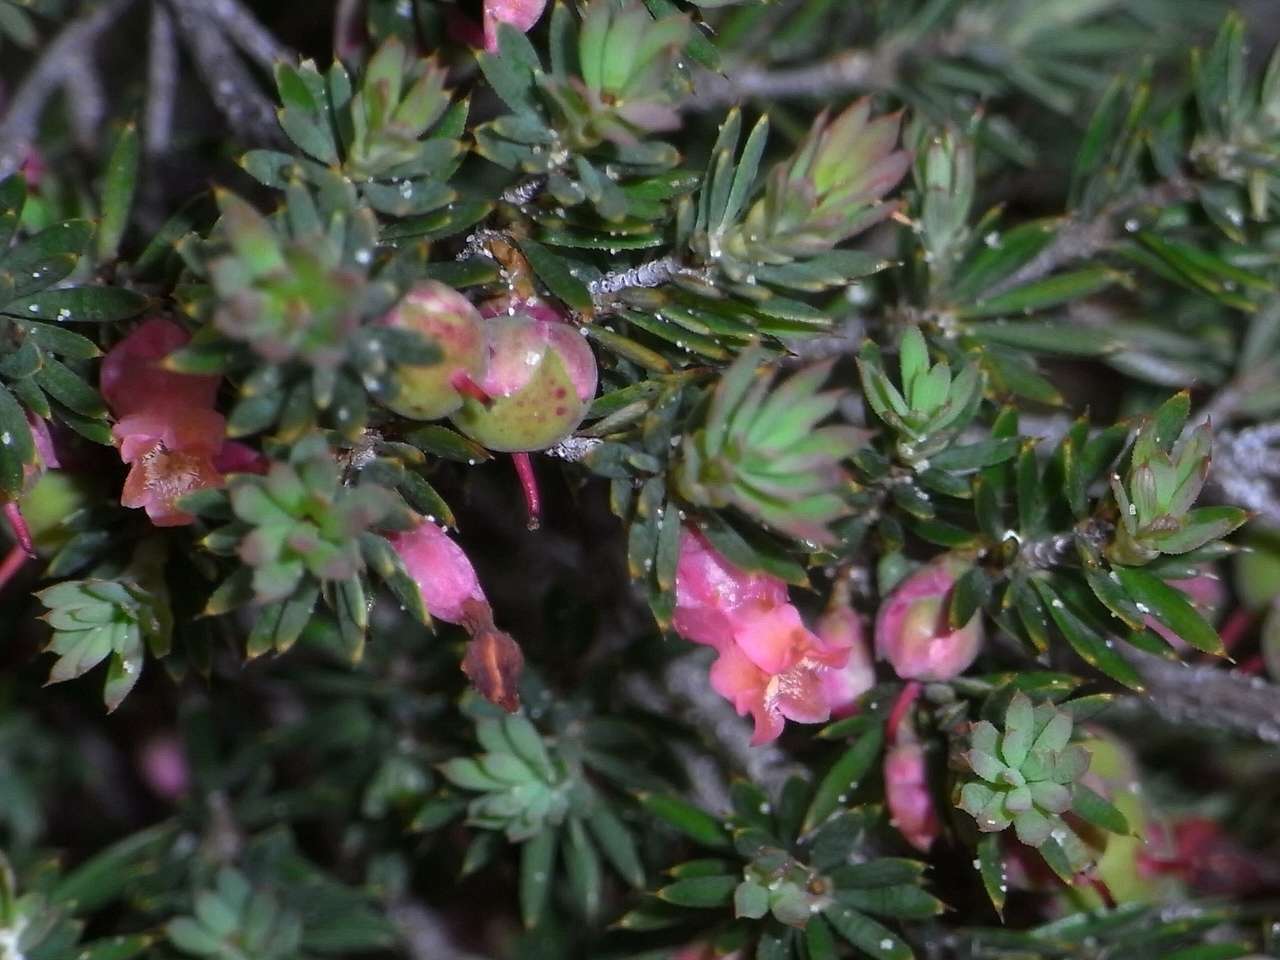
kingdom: Plantae
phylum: Tracheophyta
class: Magnoliopsida
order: Ericales
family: Ericaceae
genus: Brachyloma
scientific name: Brachyloma ericoides
